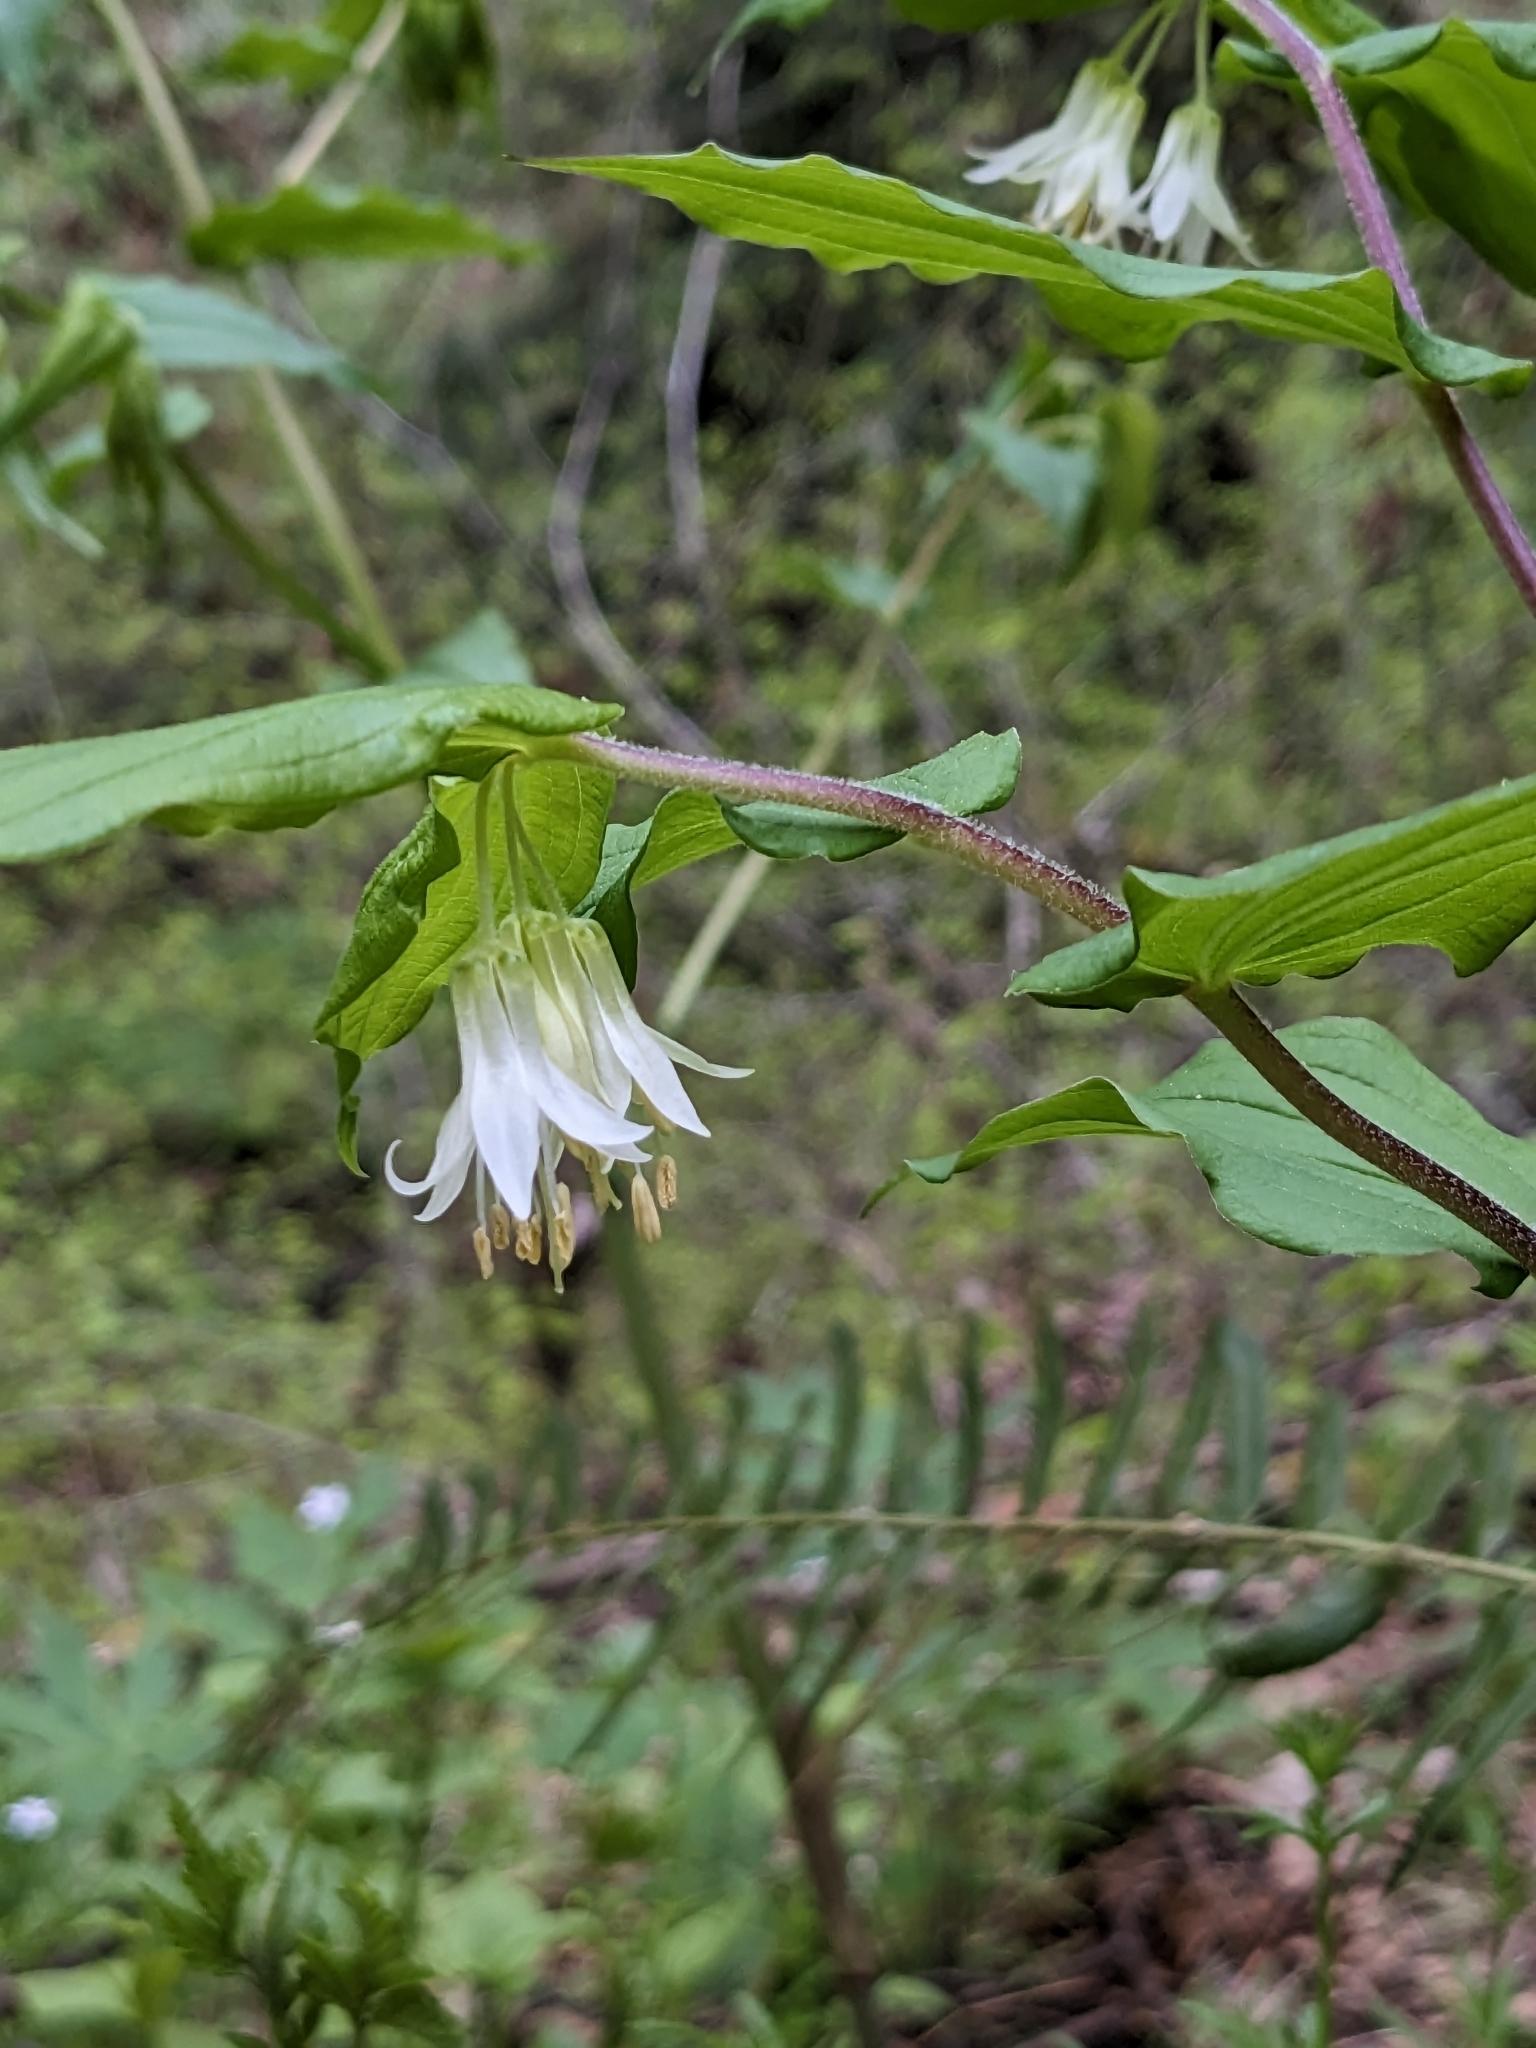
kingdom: Plantae
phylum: Tracheophyta
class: Liliopsida
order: Liliales
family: Liliaceae
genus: Prosartes
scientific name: Prosartes hookeri
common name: Fairy-bells
